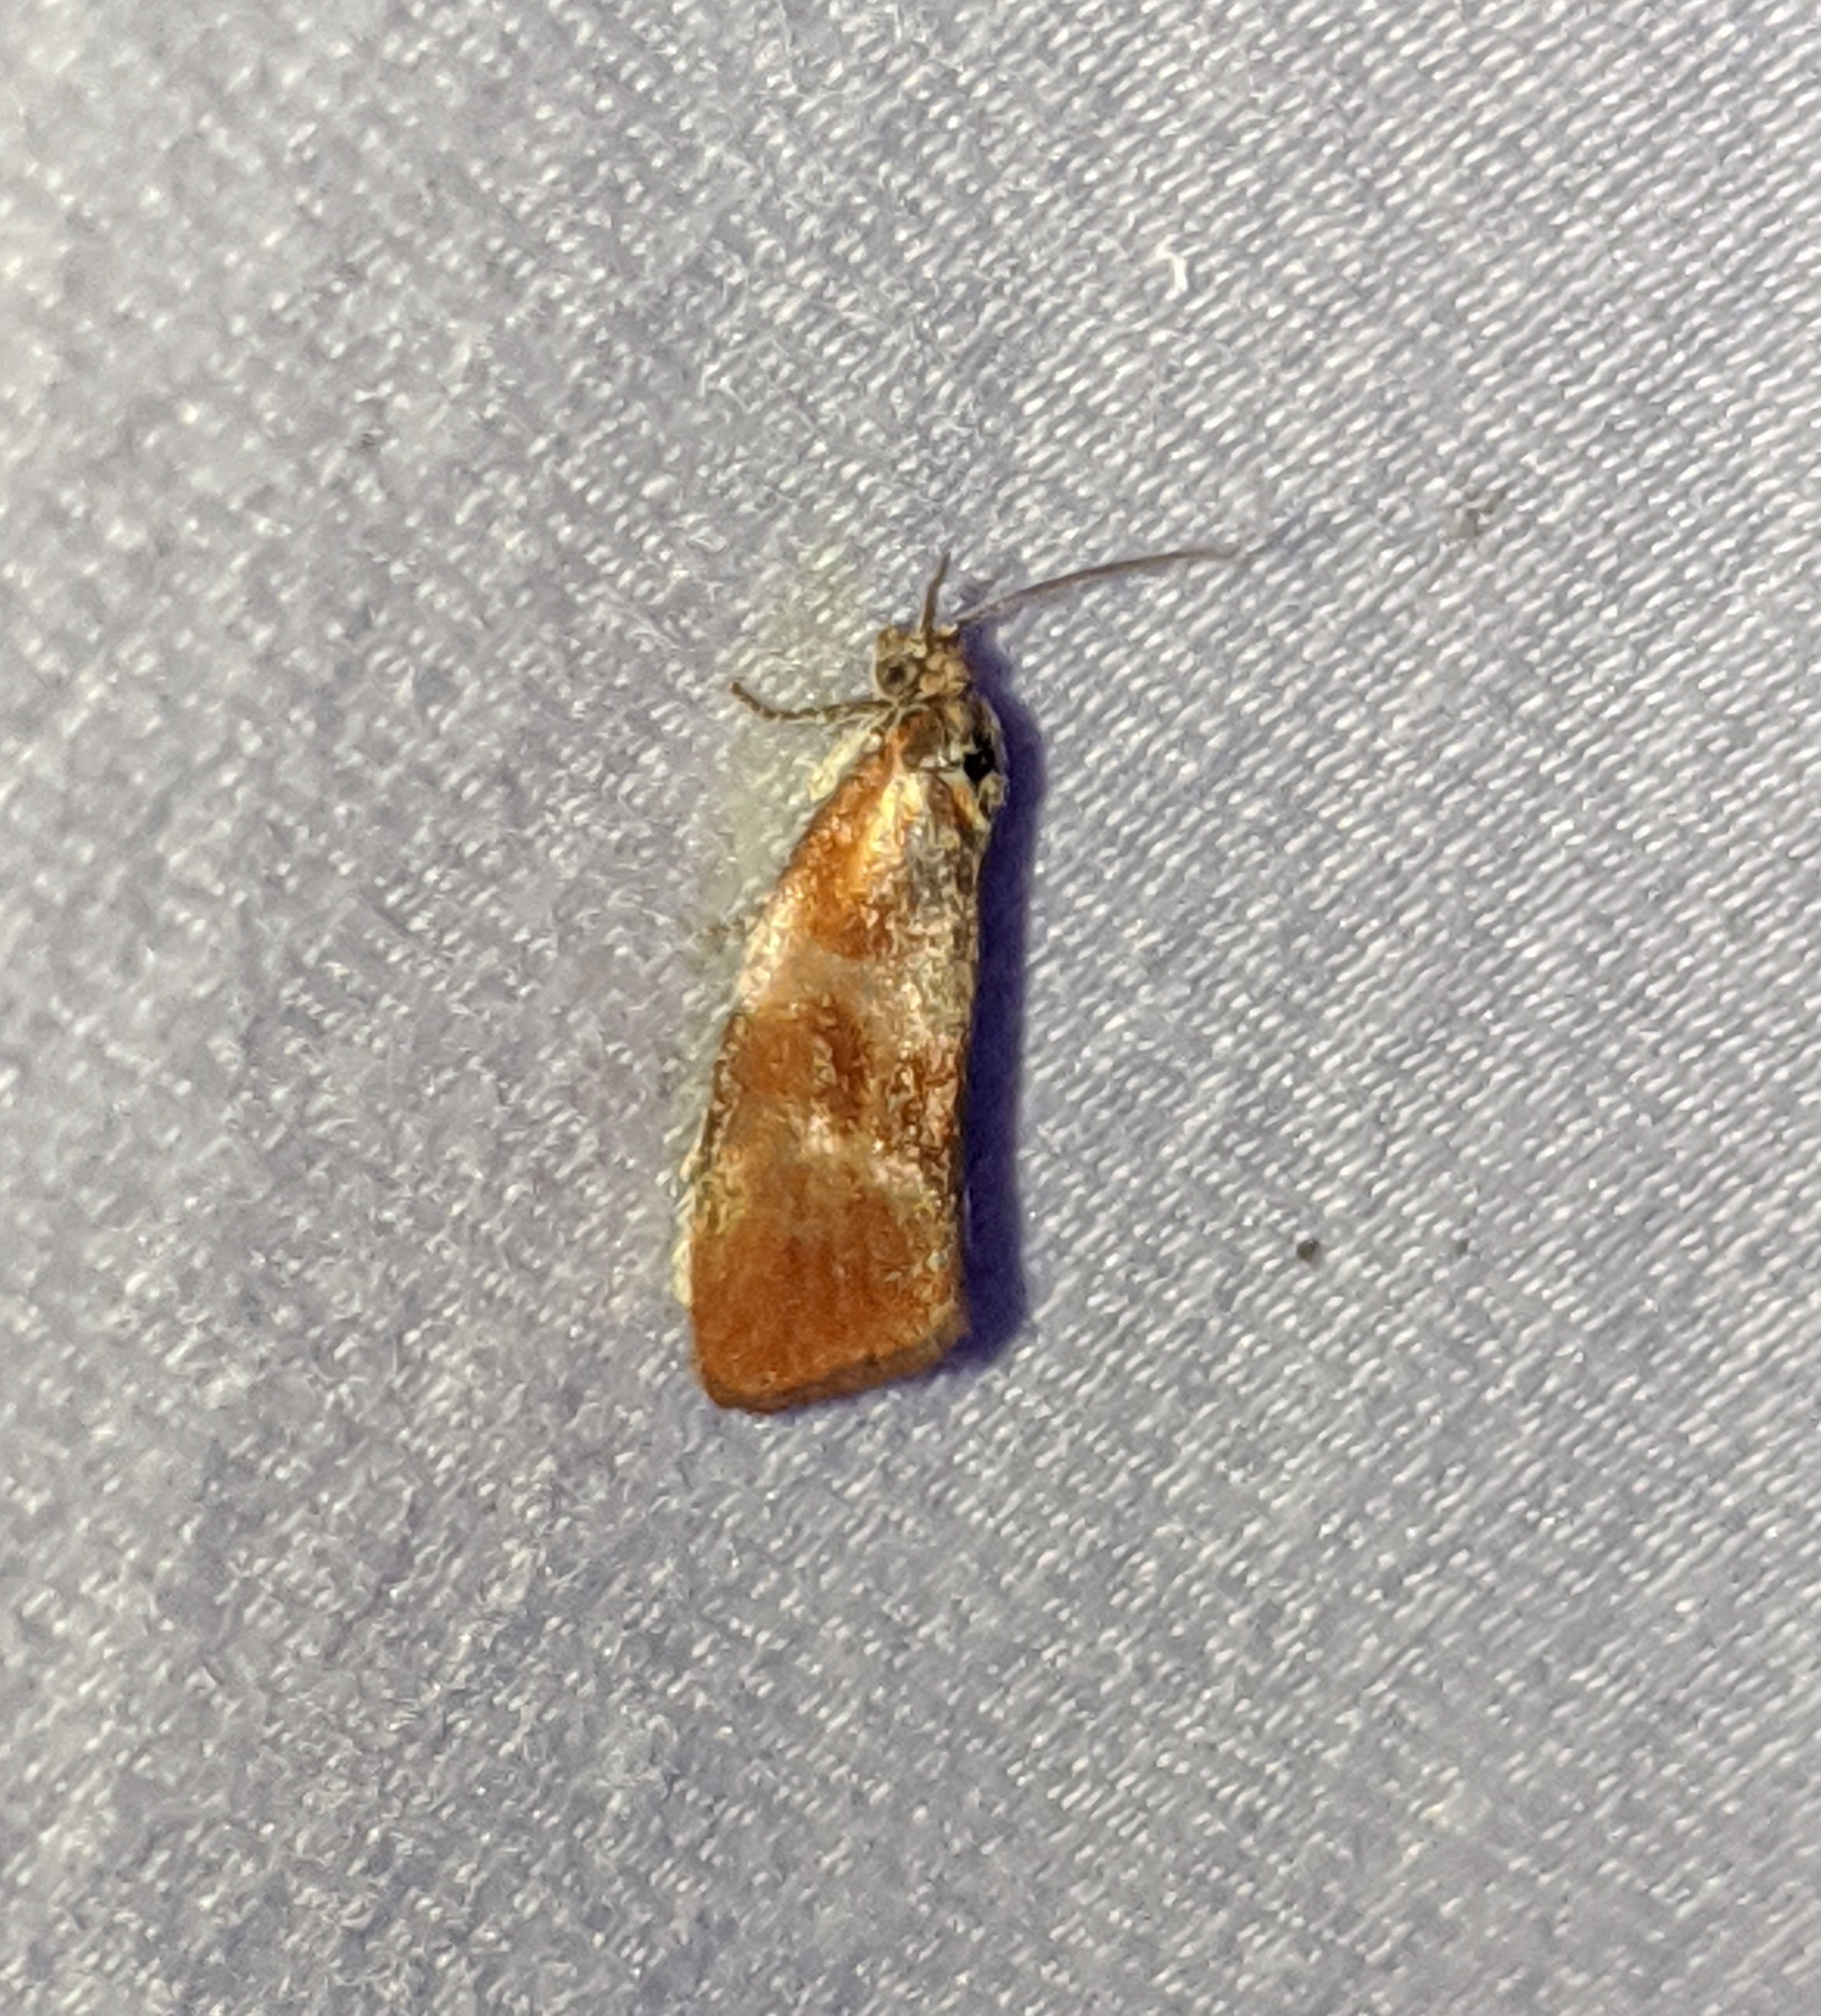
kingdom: Animalia
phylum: Arthropoda
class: Insecta
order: Lepidoptera
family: Tortricidae
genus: Eulia
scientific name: Eulia ministrana
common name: Brassy twist
